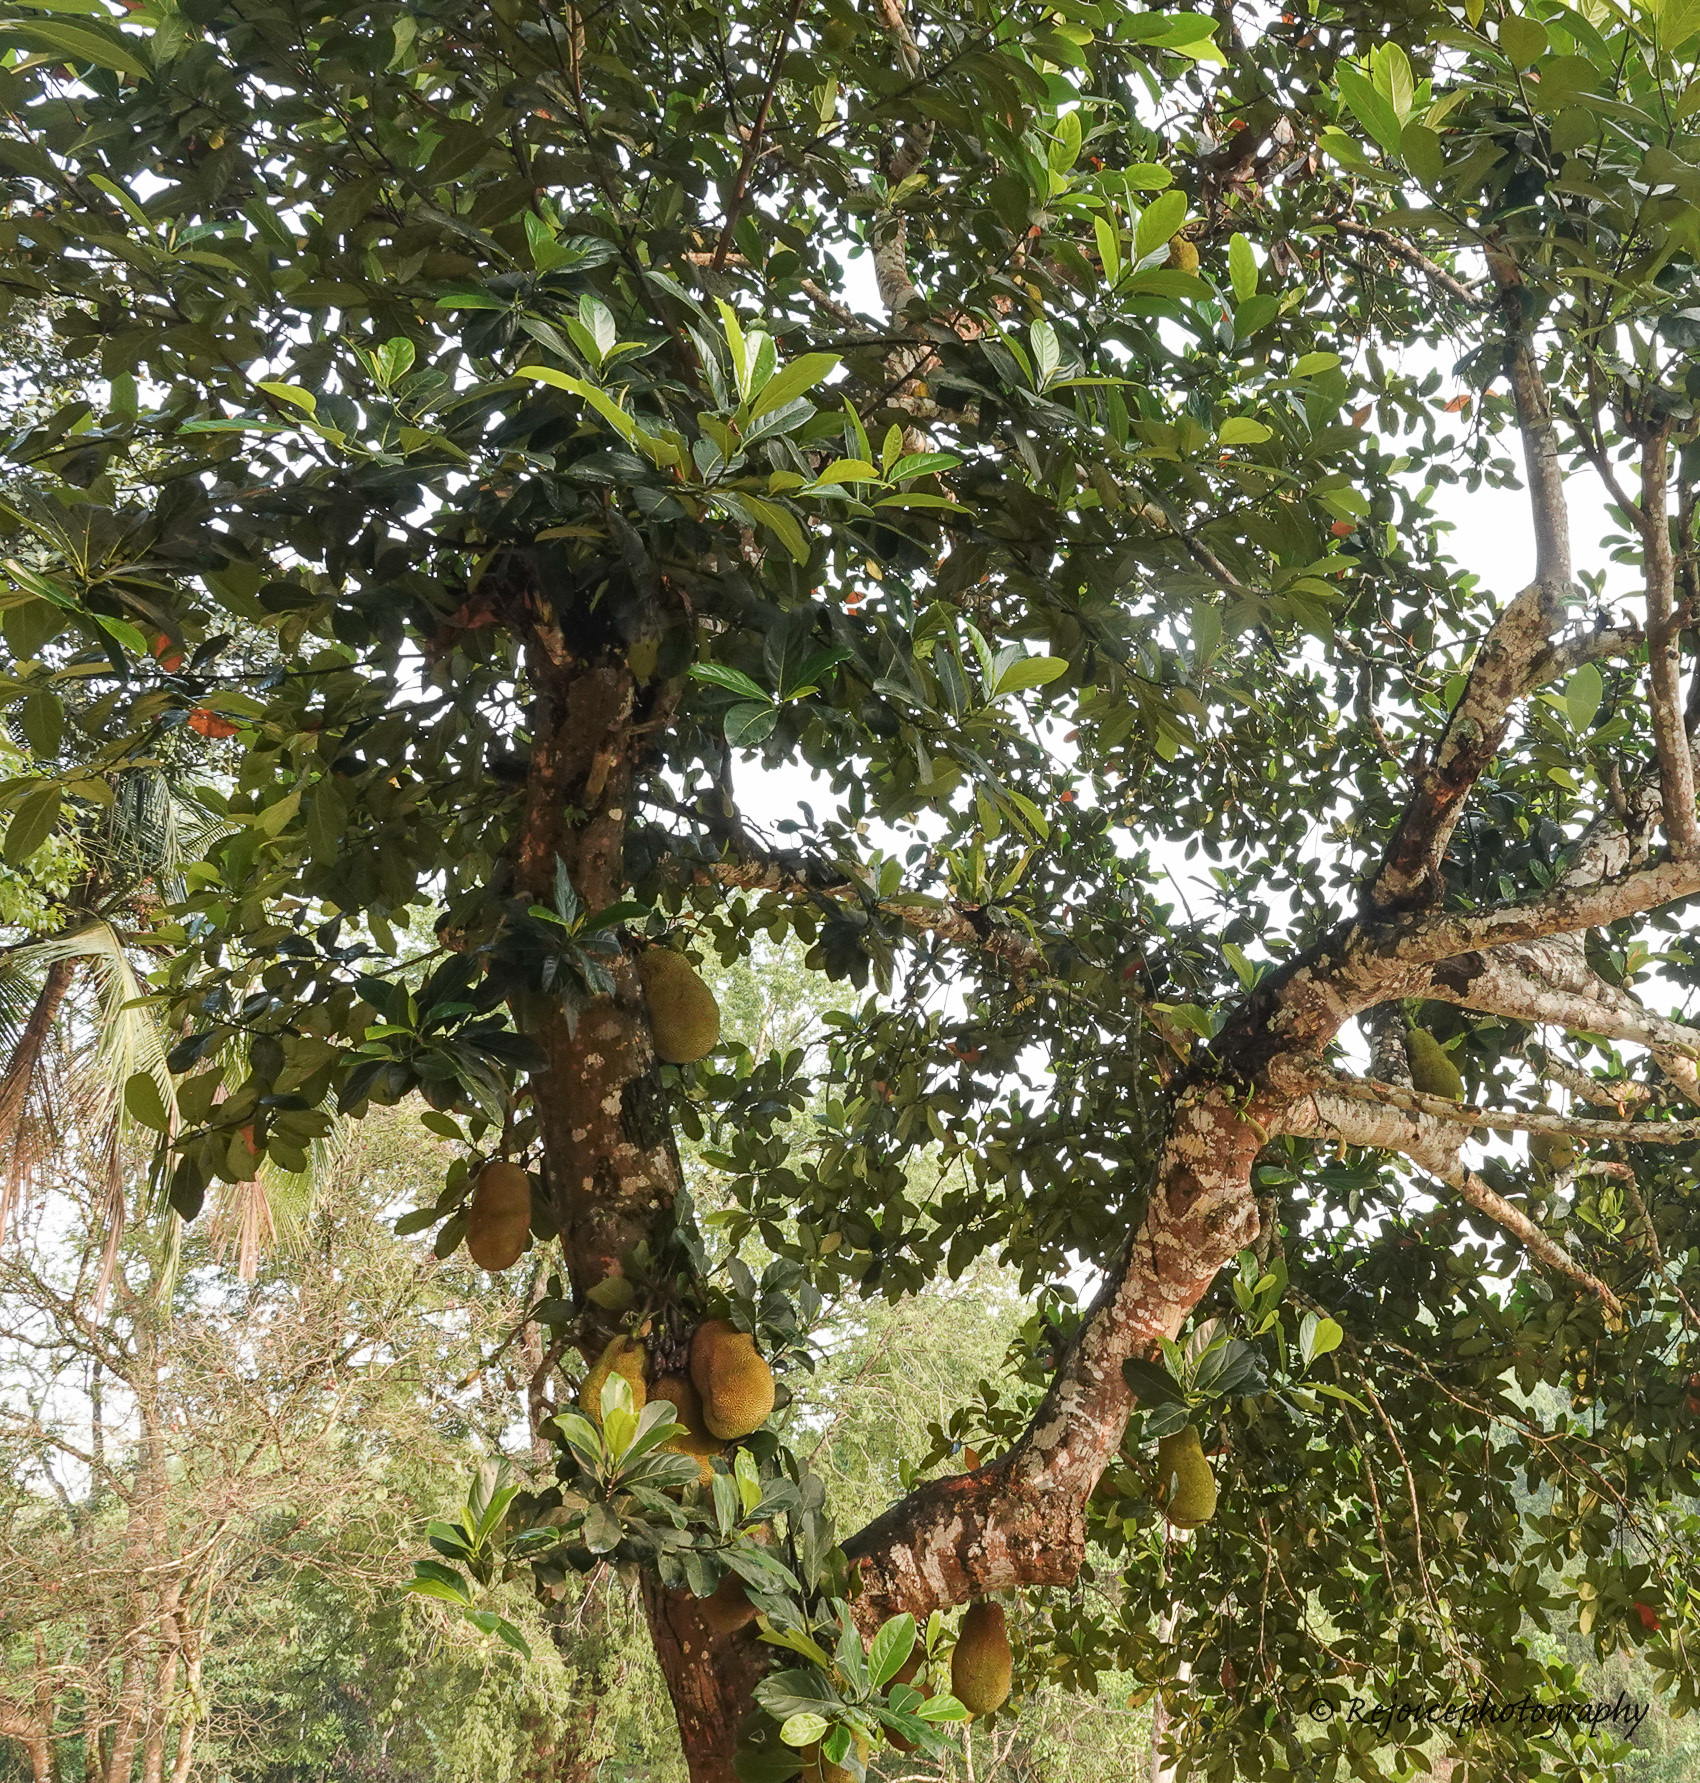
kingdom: Plantae
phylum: Tracheophyta
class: Magnoliopsida
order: Rosales
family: Moraceae
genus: Artocarpus
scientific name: Artocarpus heterophyllus
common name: Jackfruit
